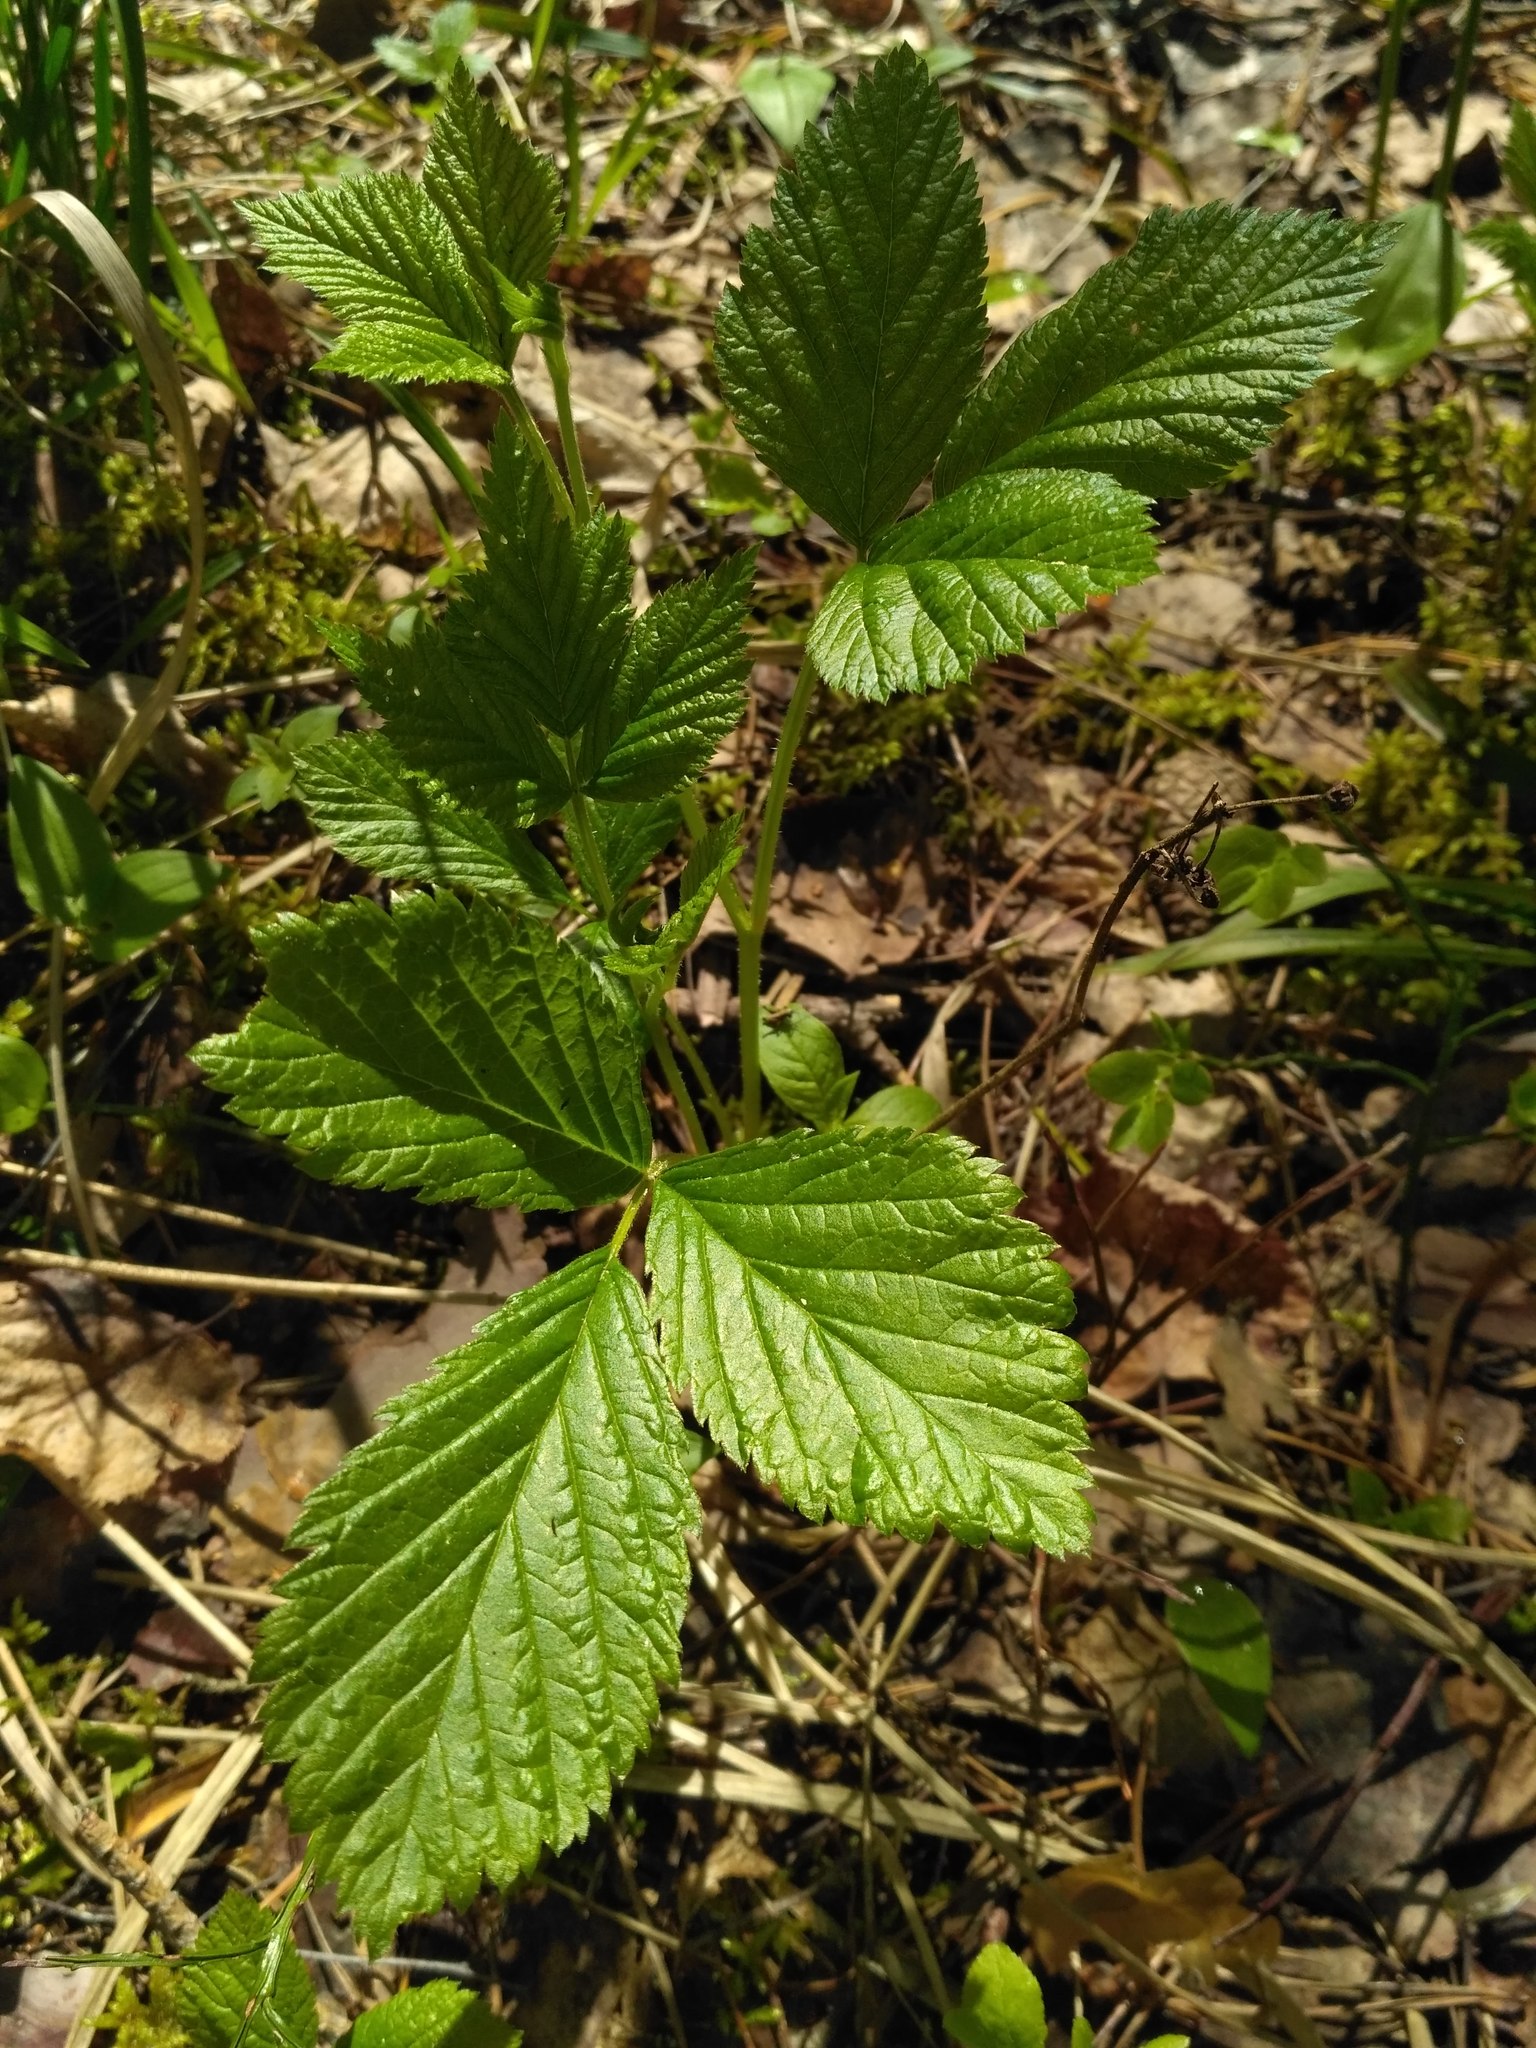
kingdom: Plantae
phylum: Tracheophyta
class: Magnoliopsida
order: Rosales
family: Rosaceae
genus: Rubus
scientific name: Rubus saxatilis
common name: Stone bramble
